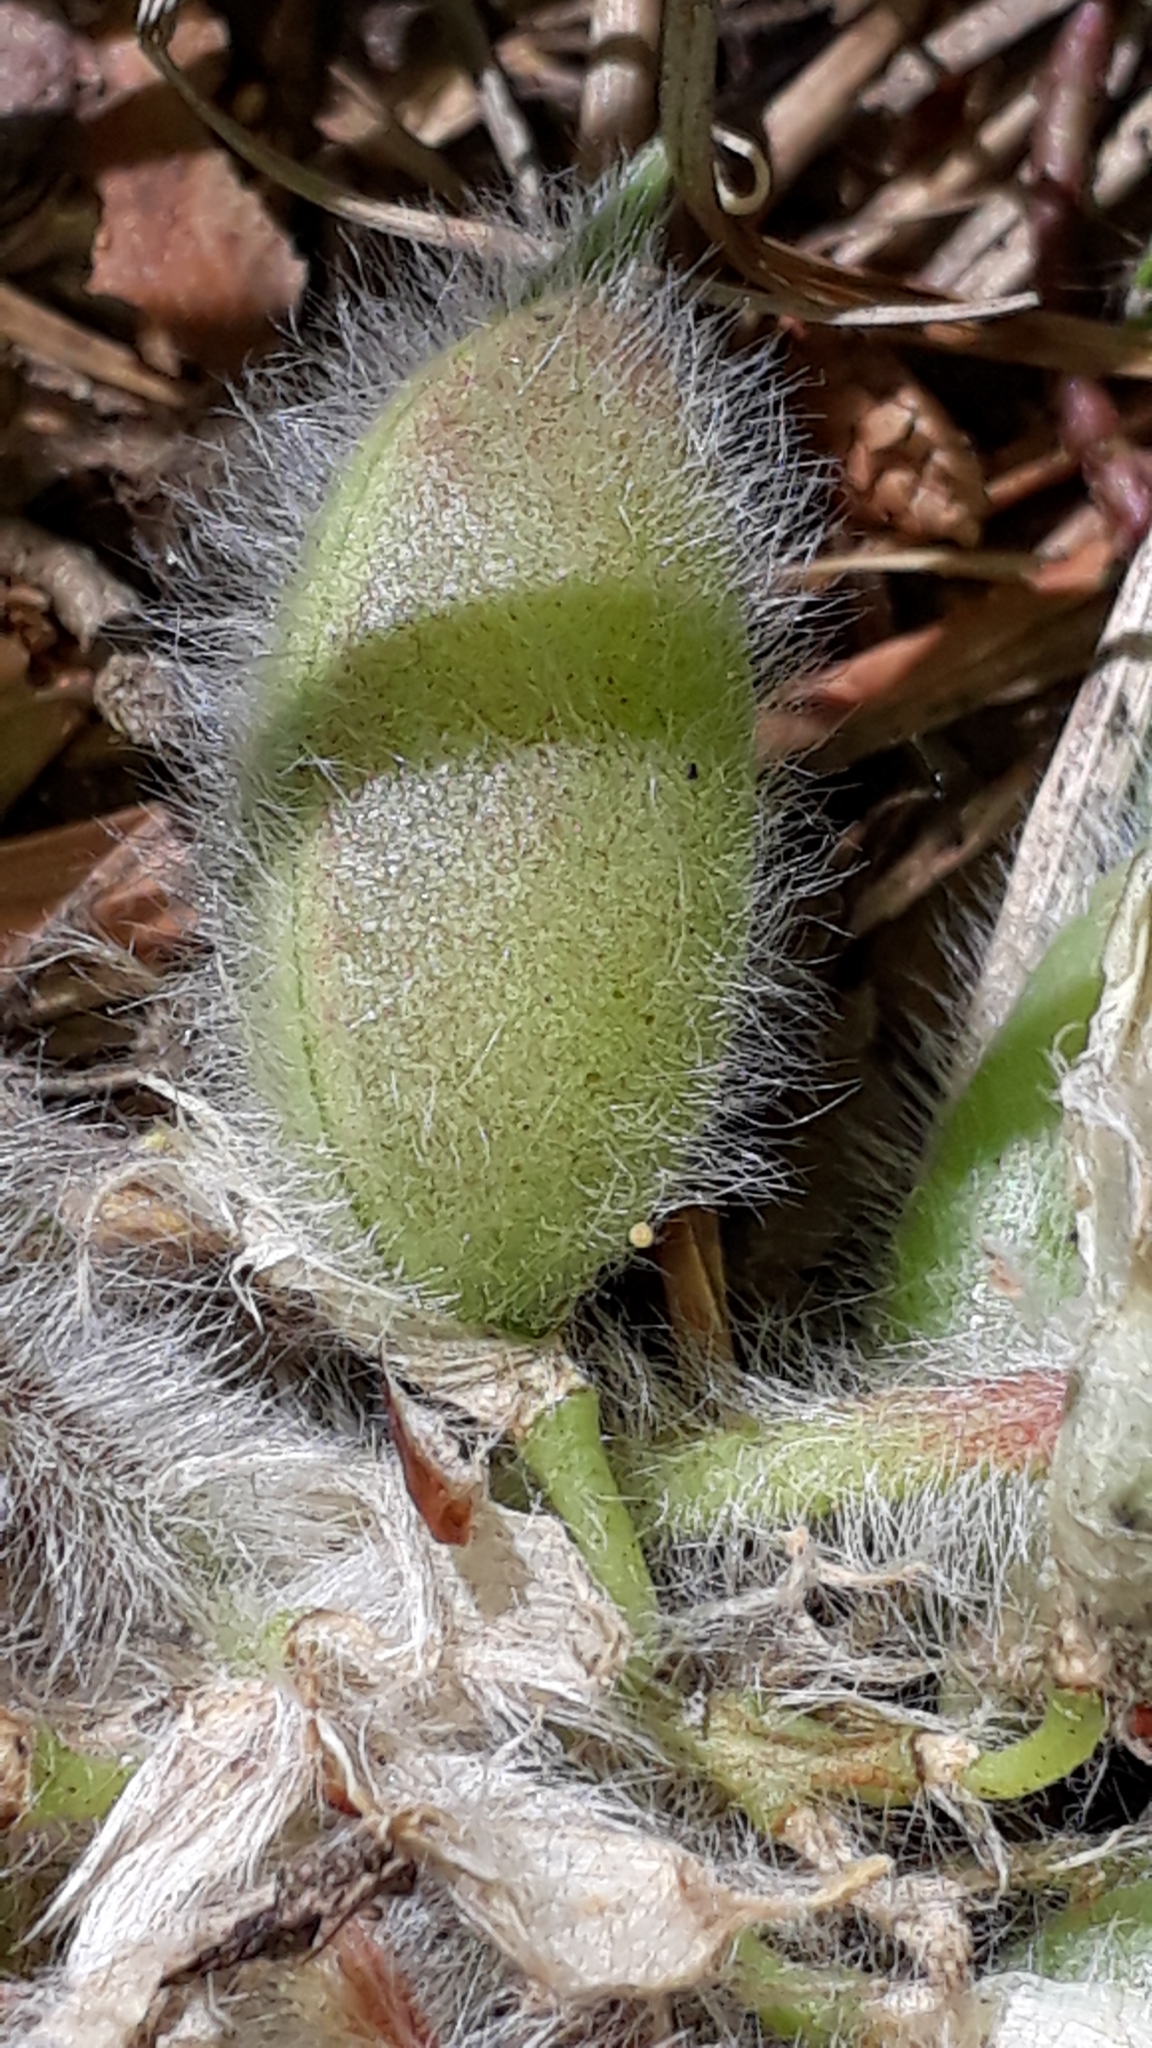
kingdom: Plantae
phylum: Tracheophyta
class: Magnoliopsida
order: Fabales
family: Fabaceae
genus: Astragalus
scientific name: Astragalus exscapus
